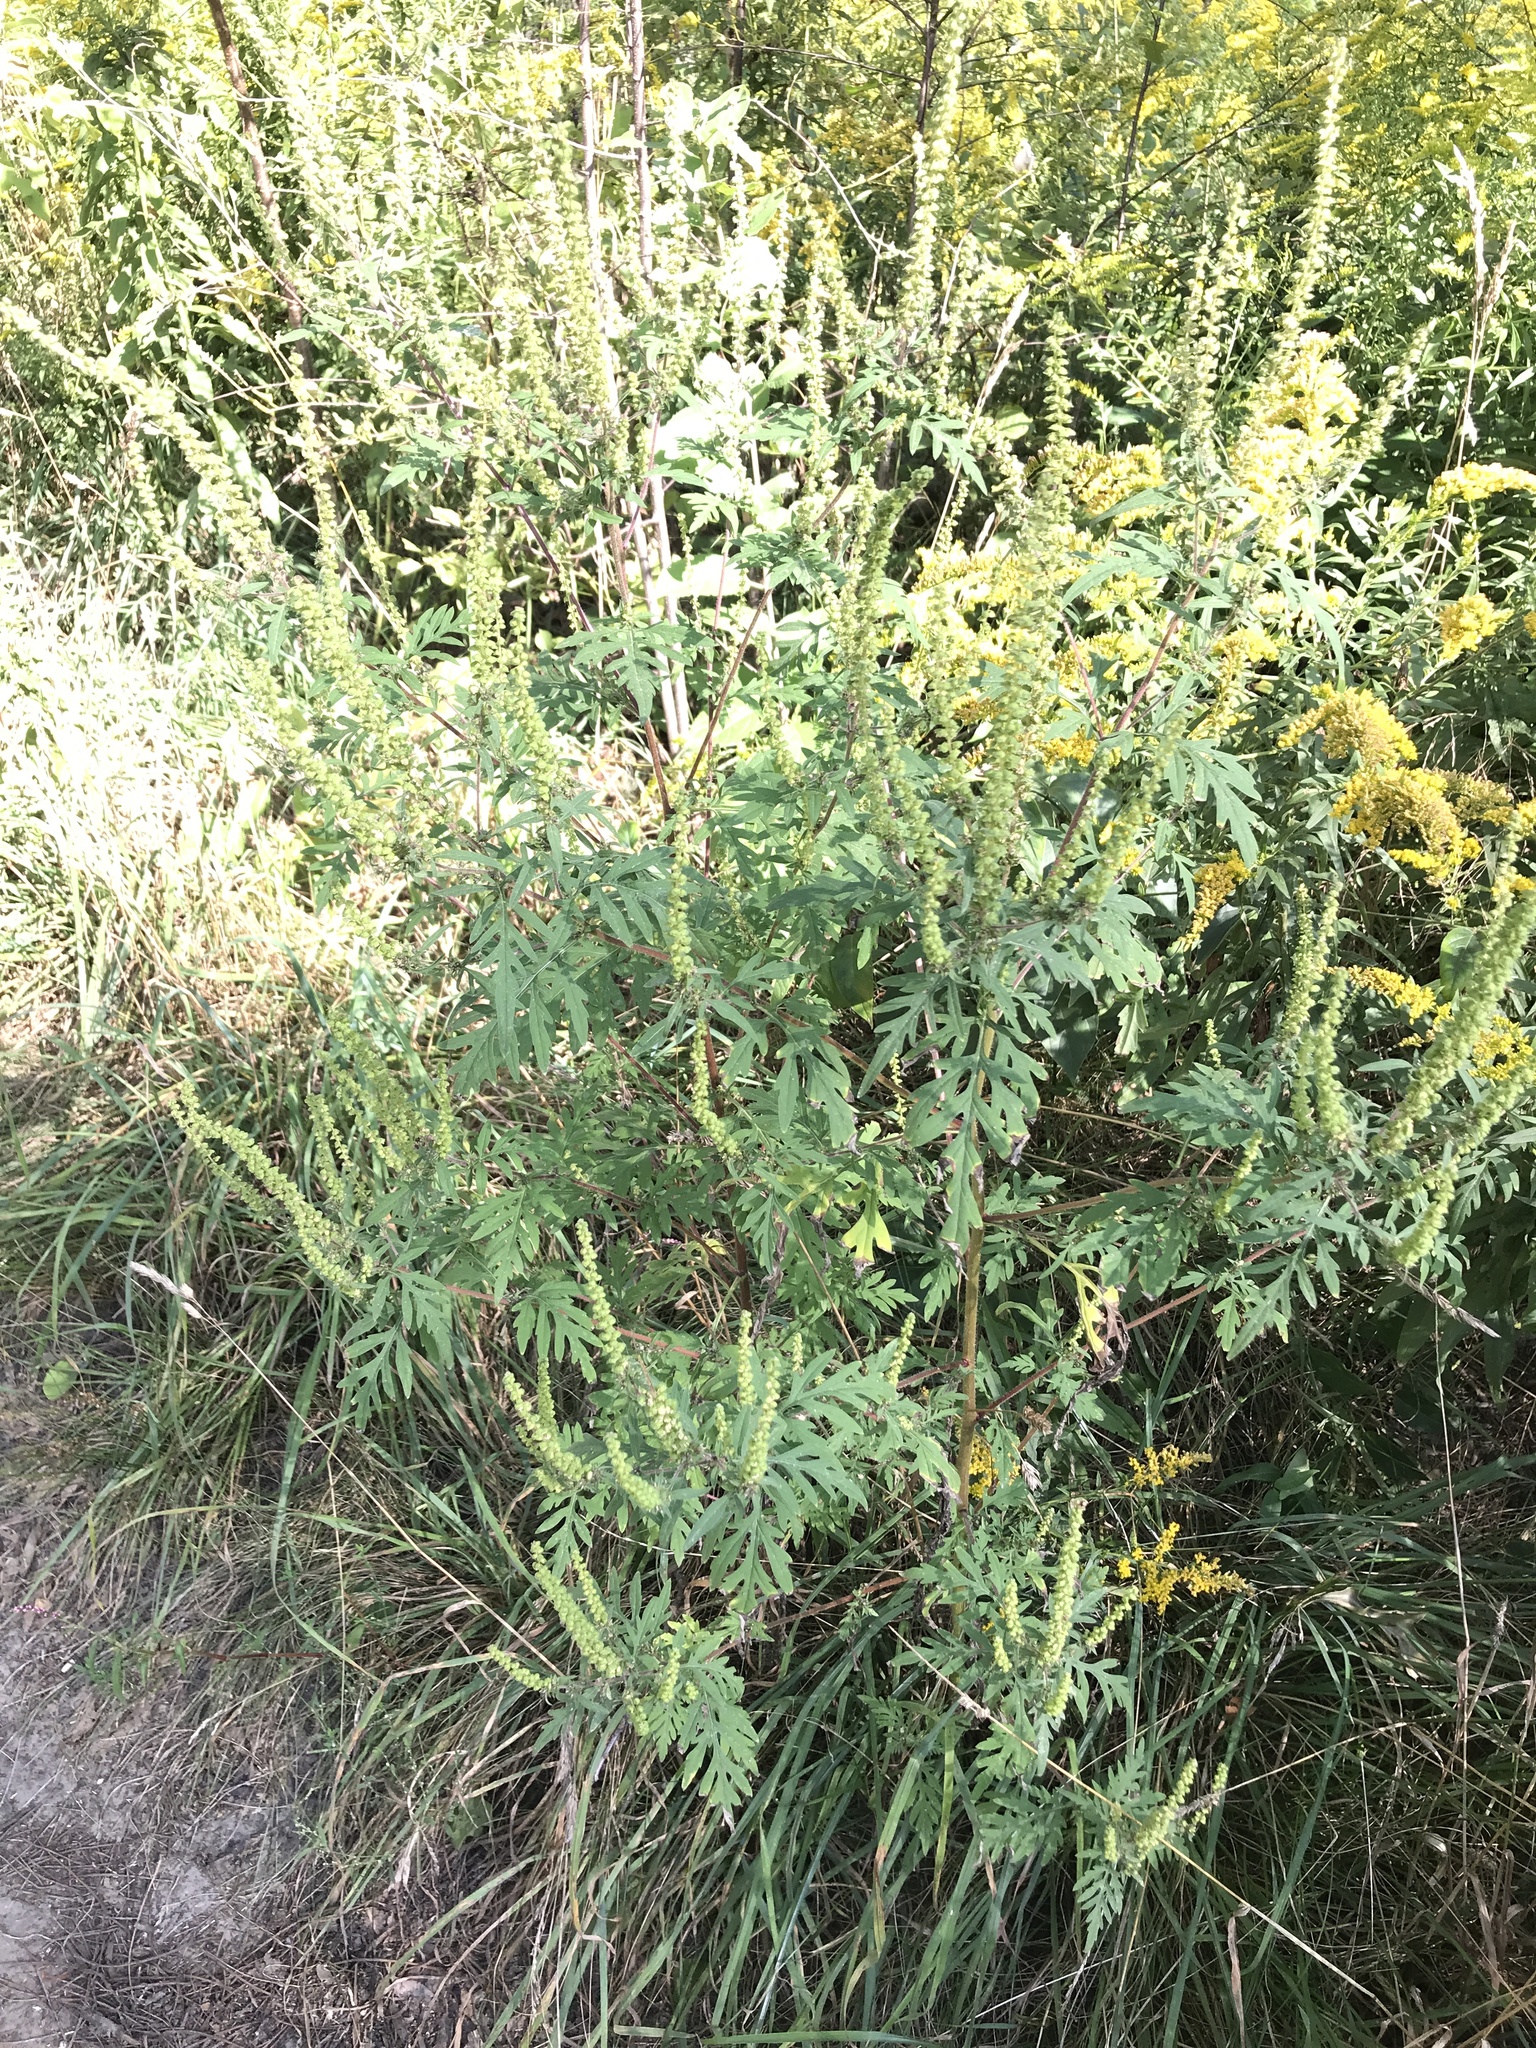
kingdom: Plantae
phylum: Tracheophyta
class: Magnoliopsida
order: Asterales
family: Asteraceae
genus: Ambrosia
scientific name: Ambrosia artemisiifolia
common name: Annual ragweed
